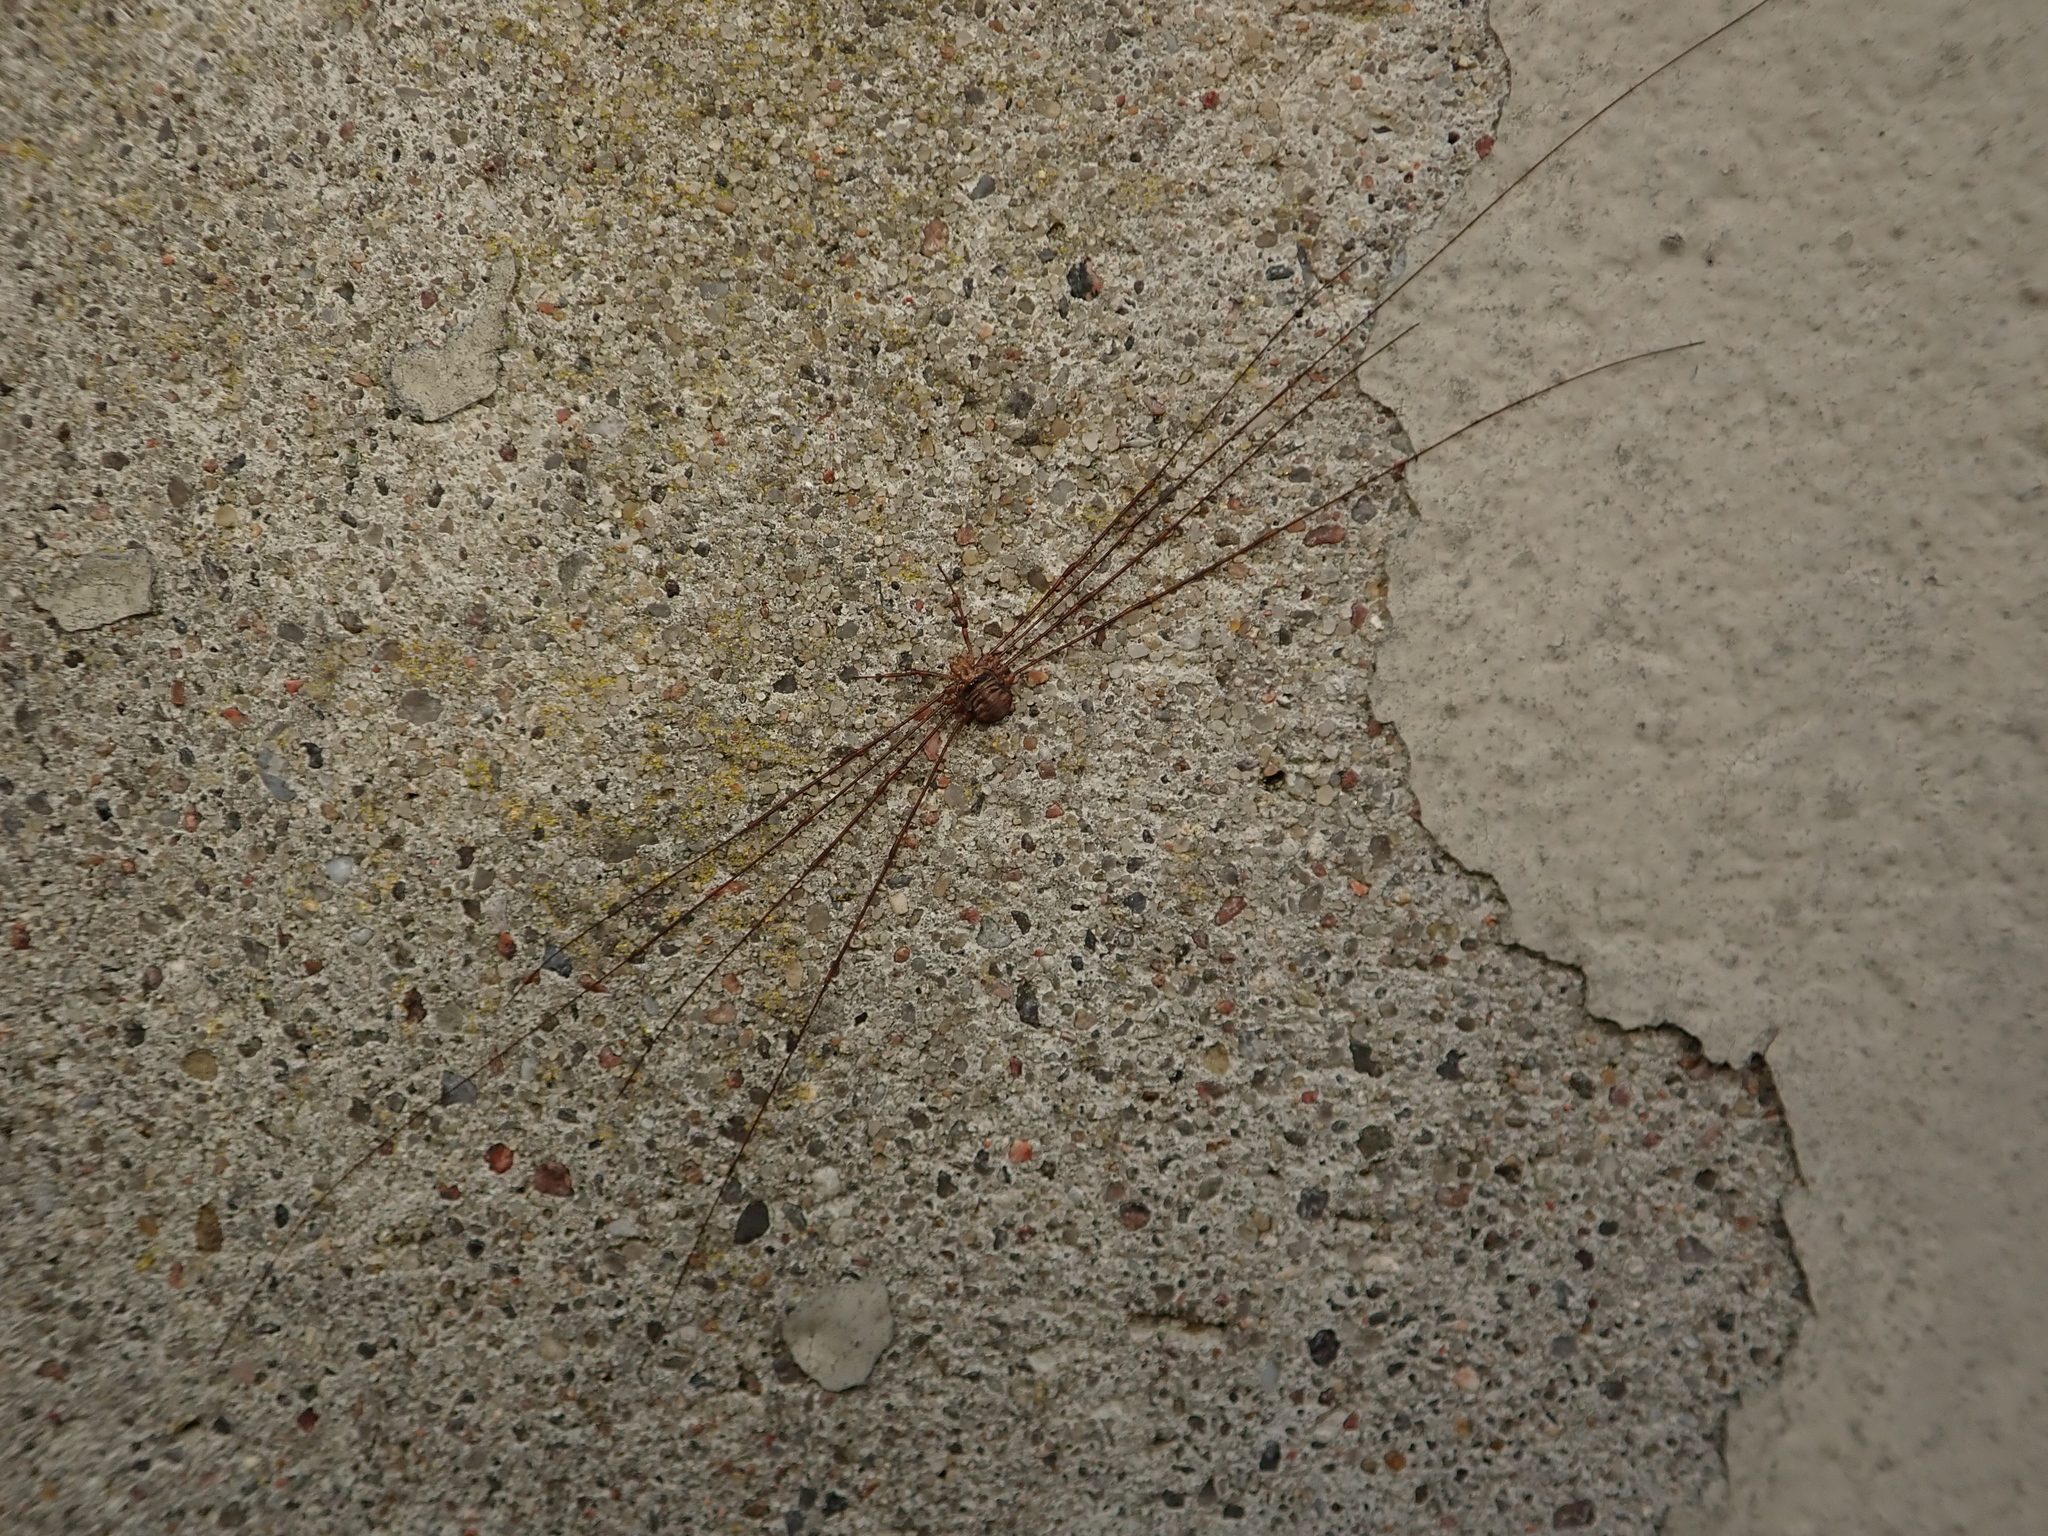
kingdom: Animalia
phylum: Arthropoda
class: Arachnida
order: Opiliones
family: Phalangiidae
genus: Dicranopalpus
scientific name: Dicranopalpus ramosus
